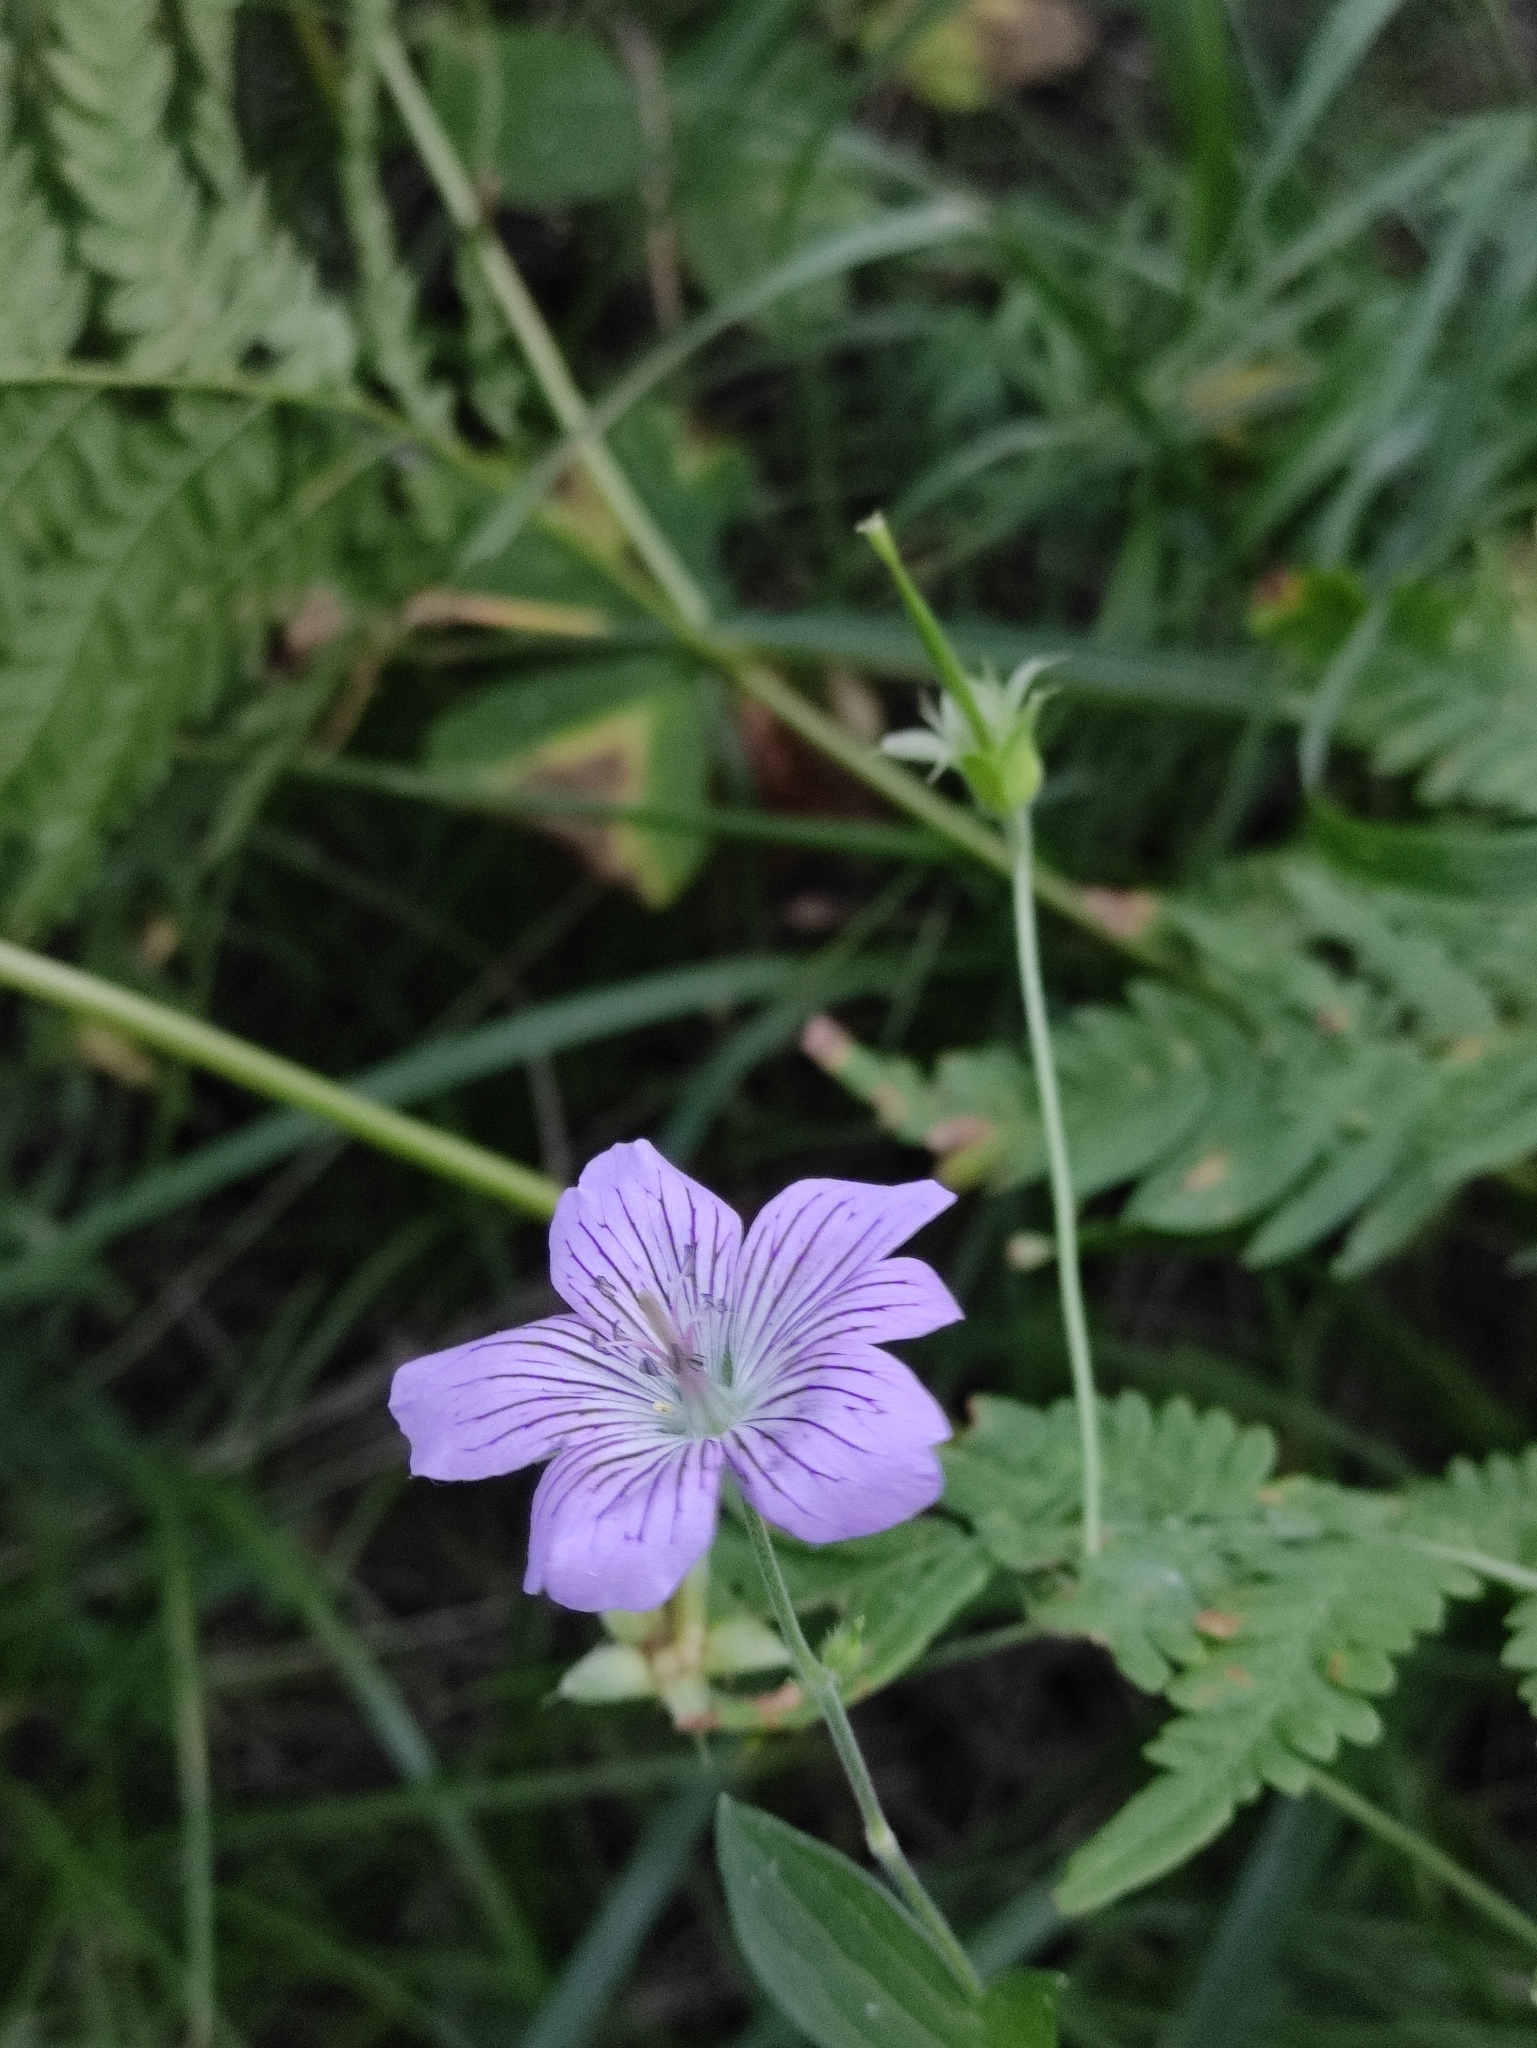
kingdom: Plantae
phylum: Tracheophyta
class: Magnoliopsida
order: Geraniales
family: Geraniaceae
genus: Geranium
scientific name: Geranium wlassovianum
